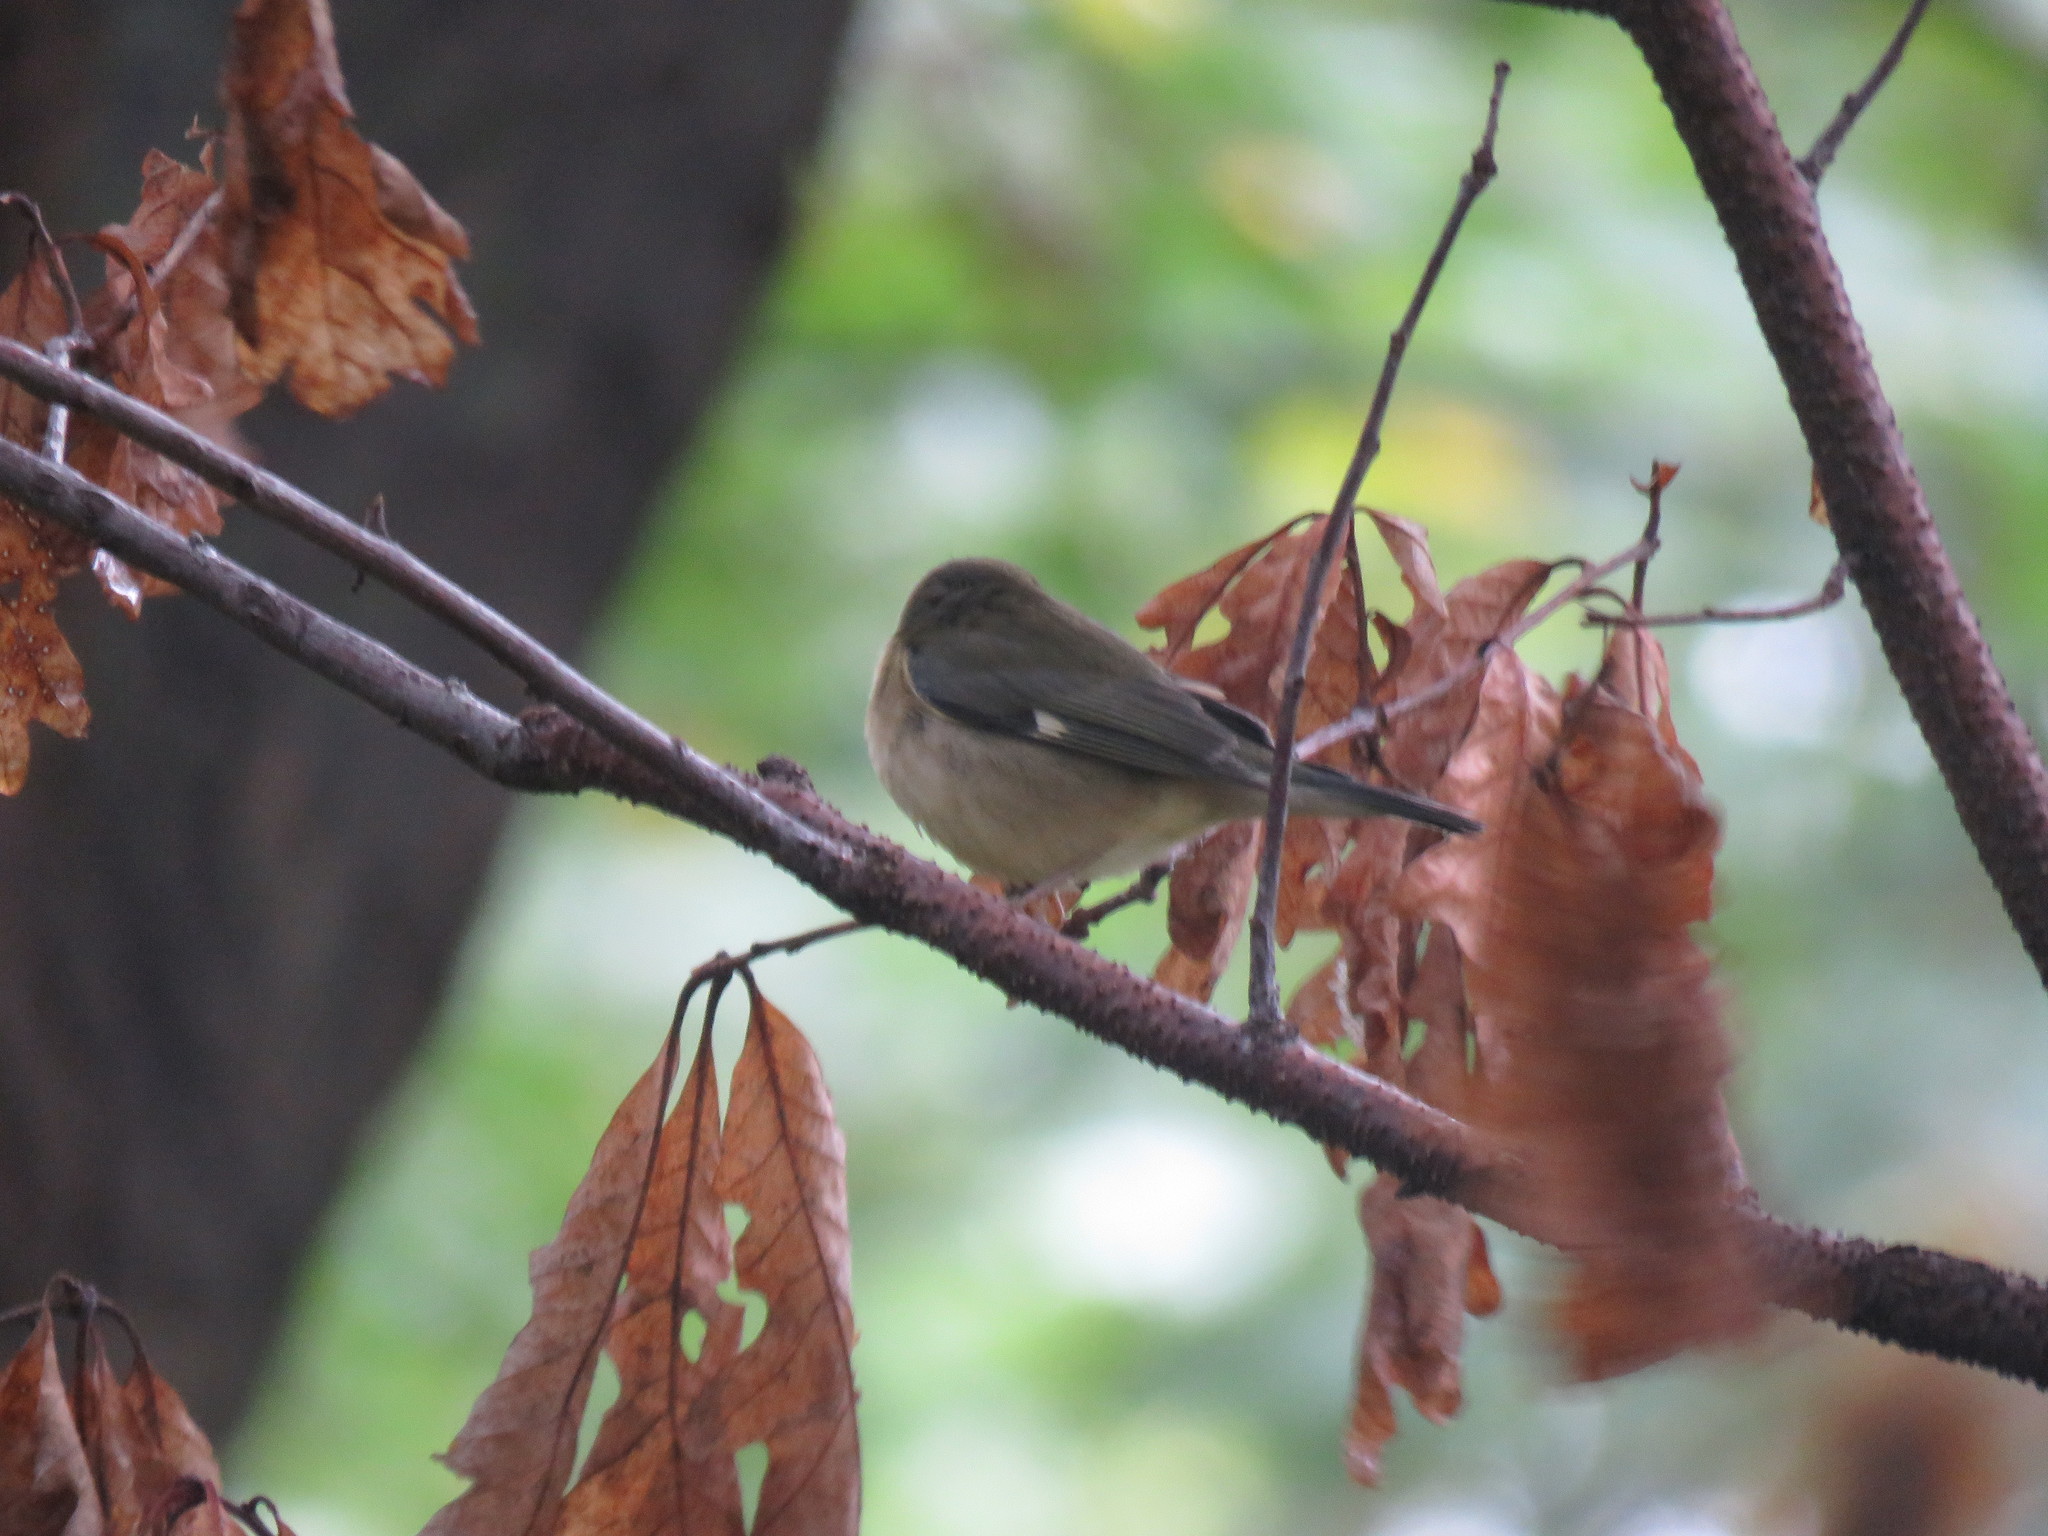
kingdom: Animalia
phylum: Chordata
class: Aves
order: Passeriformes
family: Parulidae
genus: Setophaga
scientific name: Setophaga caerulescens
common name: Black-throated blue warbler
